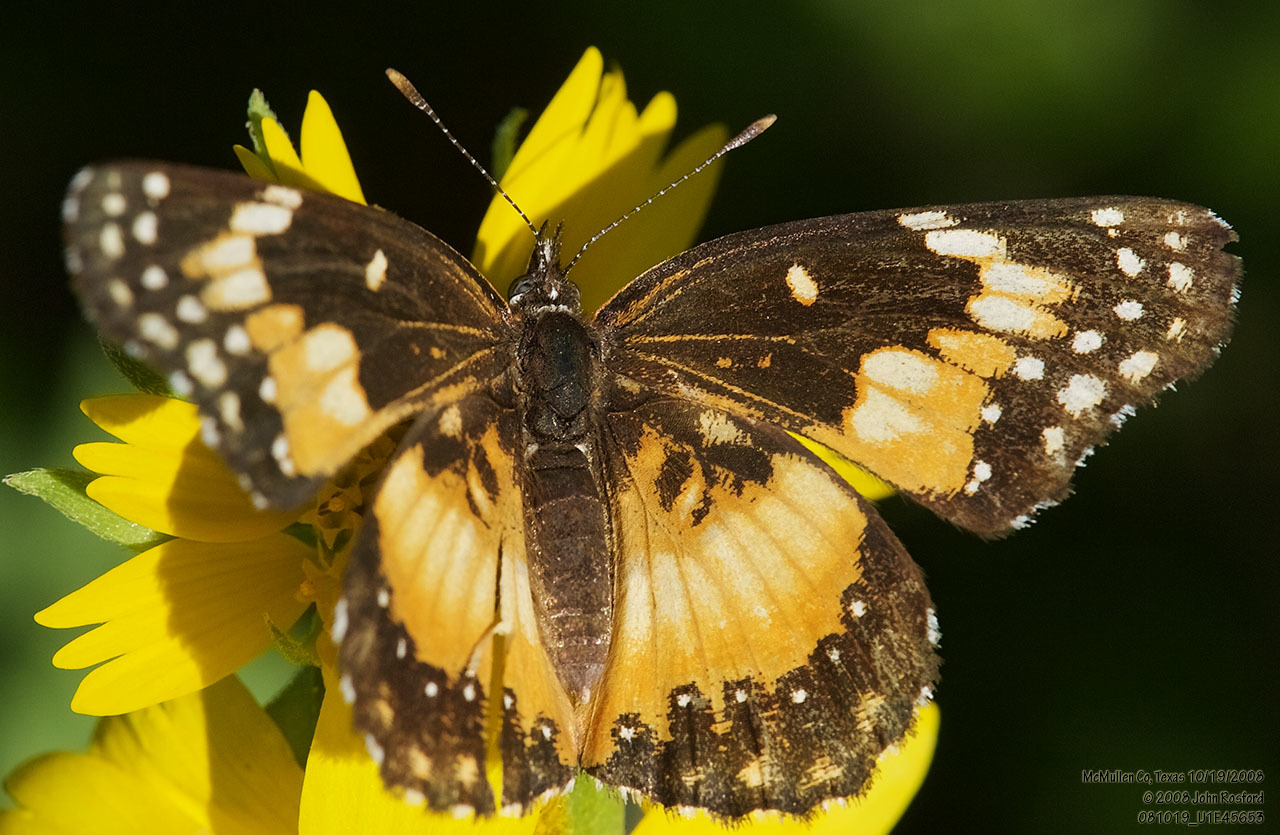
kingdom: Animalia
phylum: Arthropoda
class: Insecta
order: Lepidoptera
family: Nymphalidae
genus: Chlosyne
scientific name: Chlosyne lacinia
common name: Bordered patch
